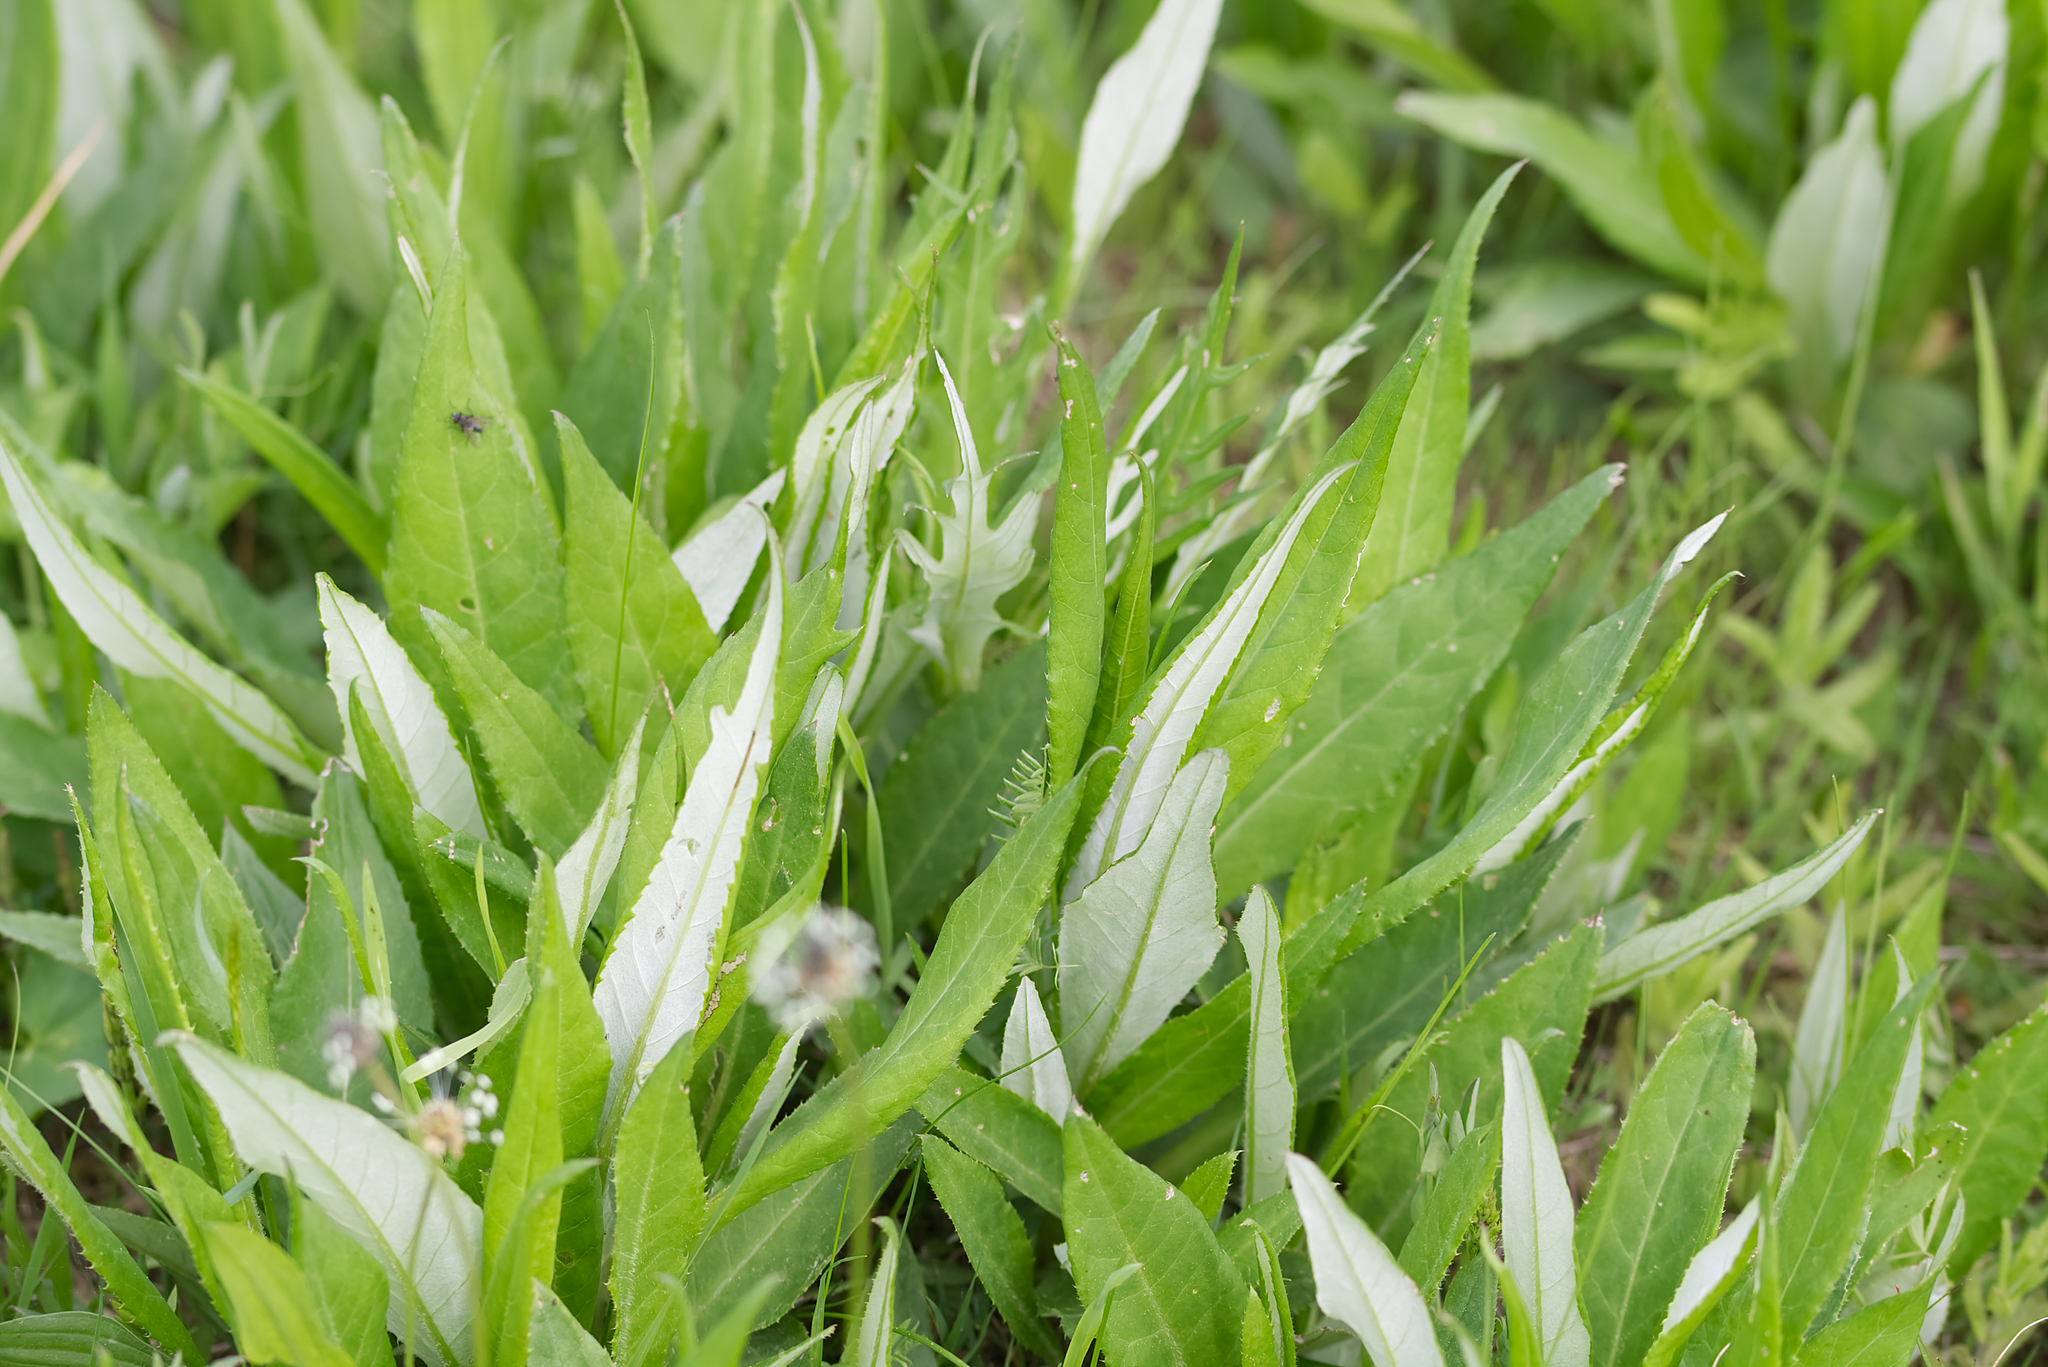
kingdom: Plantae
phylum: Tracheophyta
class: Magnoliopsida
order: Asterales
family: Asteraceae
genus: Cirsium
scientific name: Cirsium heterophyllum
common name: Melancholy thistle
